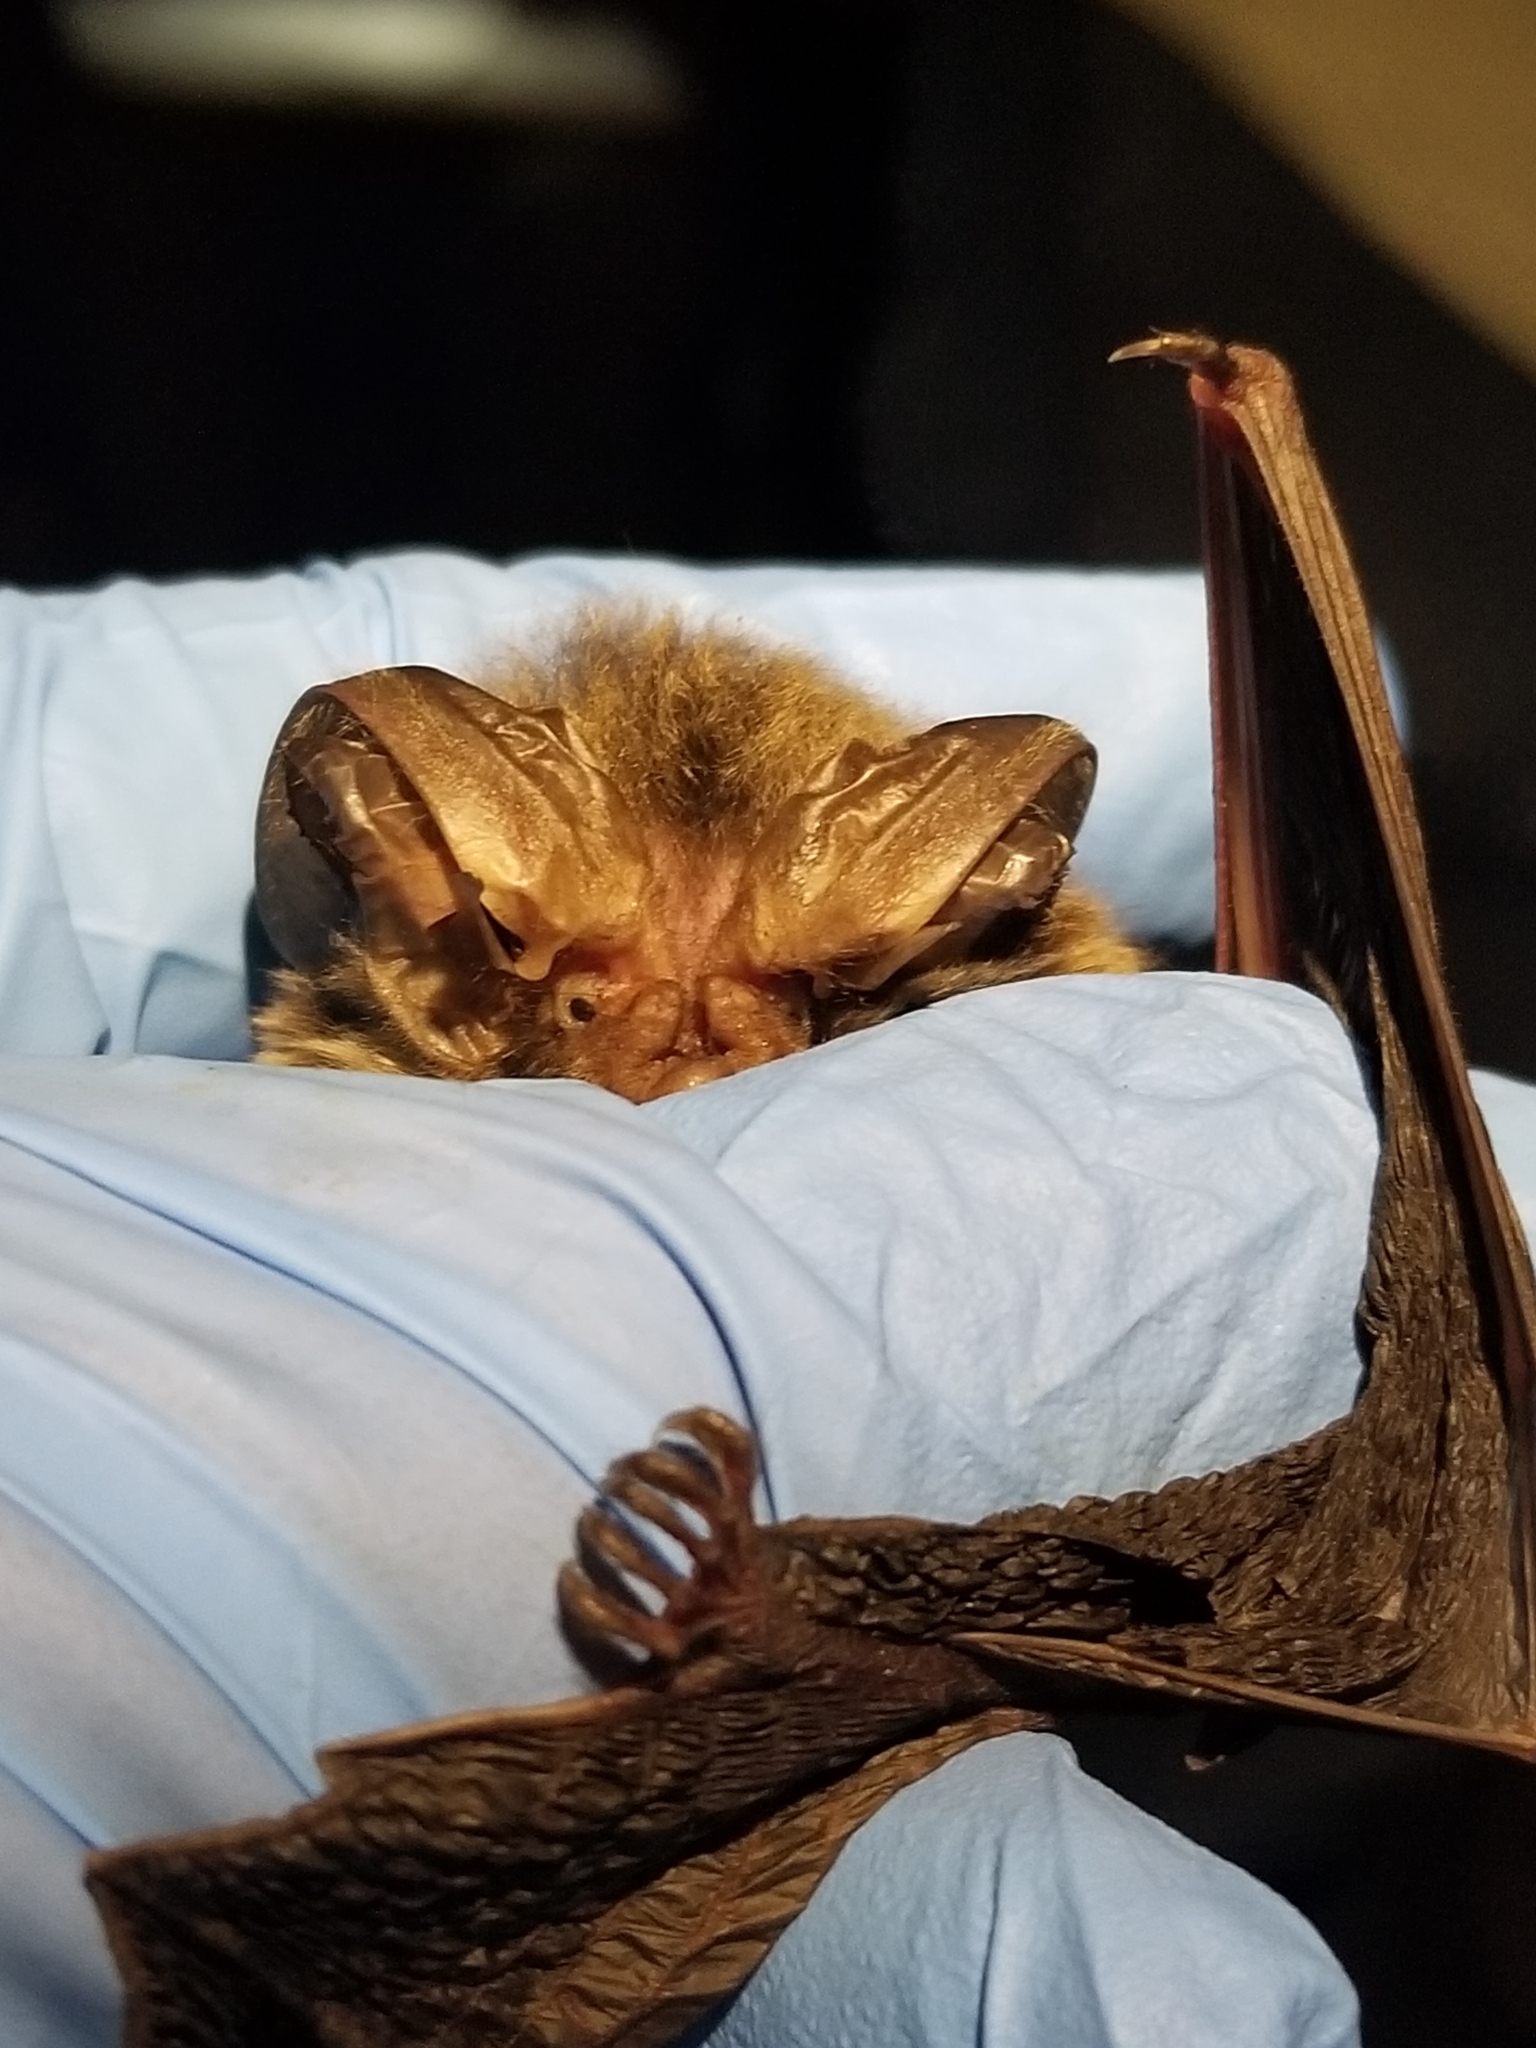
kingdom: Animalia
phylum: Chordata
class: Mammalia
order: Chiroptera
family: Vespertilionidae
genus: Corynorhinus
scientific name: Corynorhinus rafinesquii
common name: Rafinesque's big-eared bat
